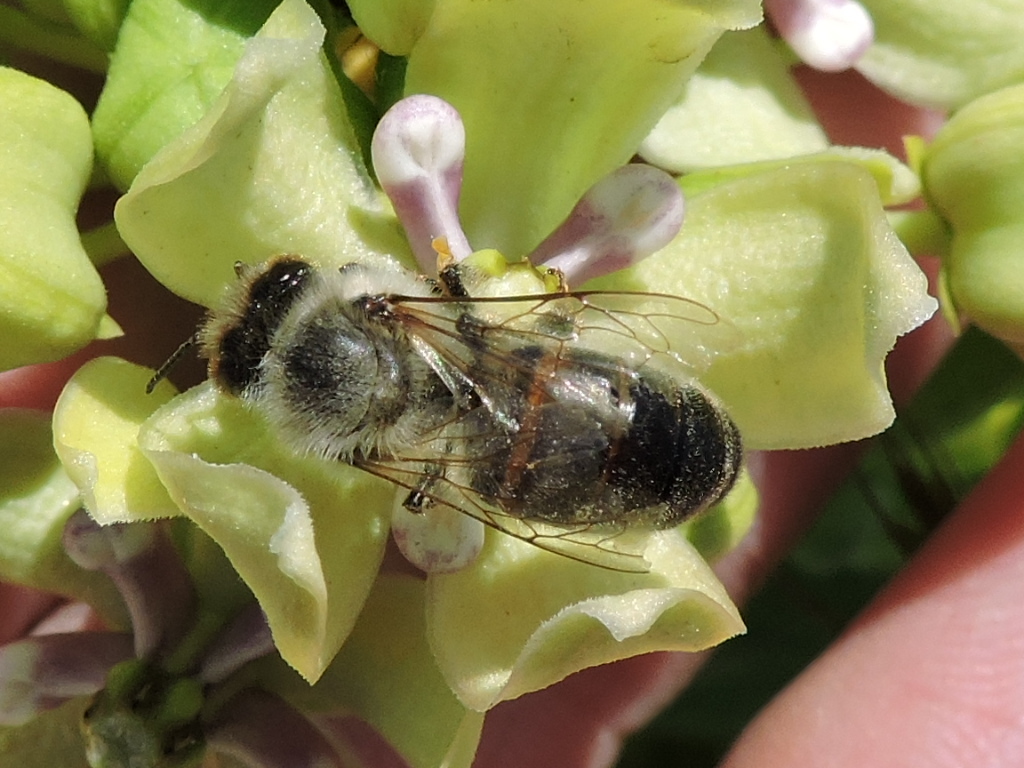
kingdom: Animalia
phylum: Arthropoda
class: Insecta
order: Hymenoptera
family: Apidae
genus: Apis
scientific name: Apis mellifera
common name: Honey bee
